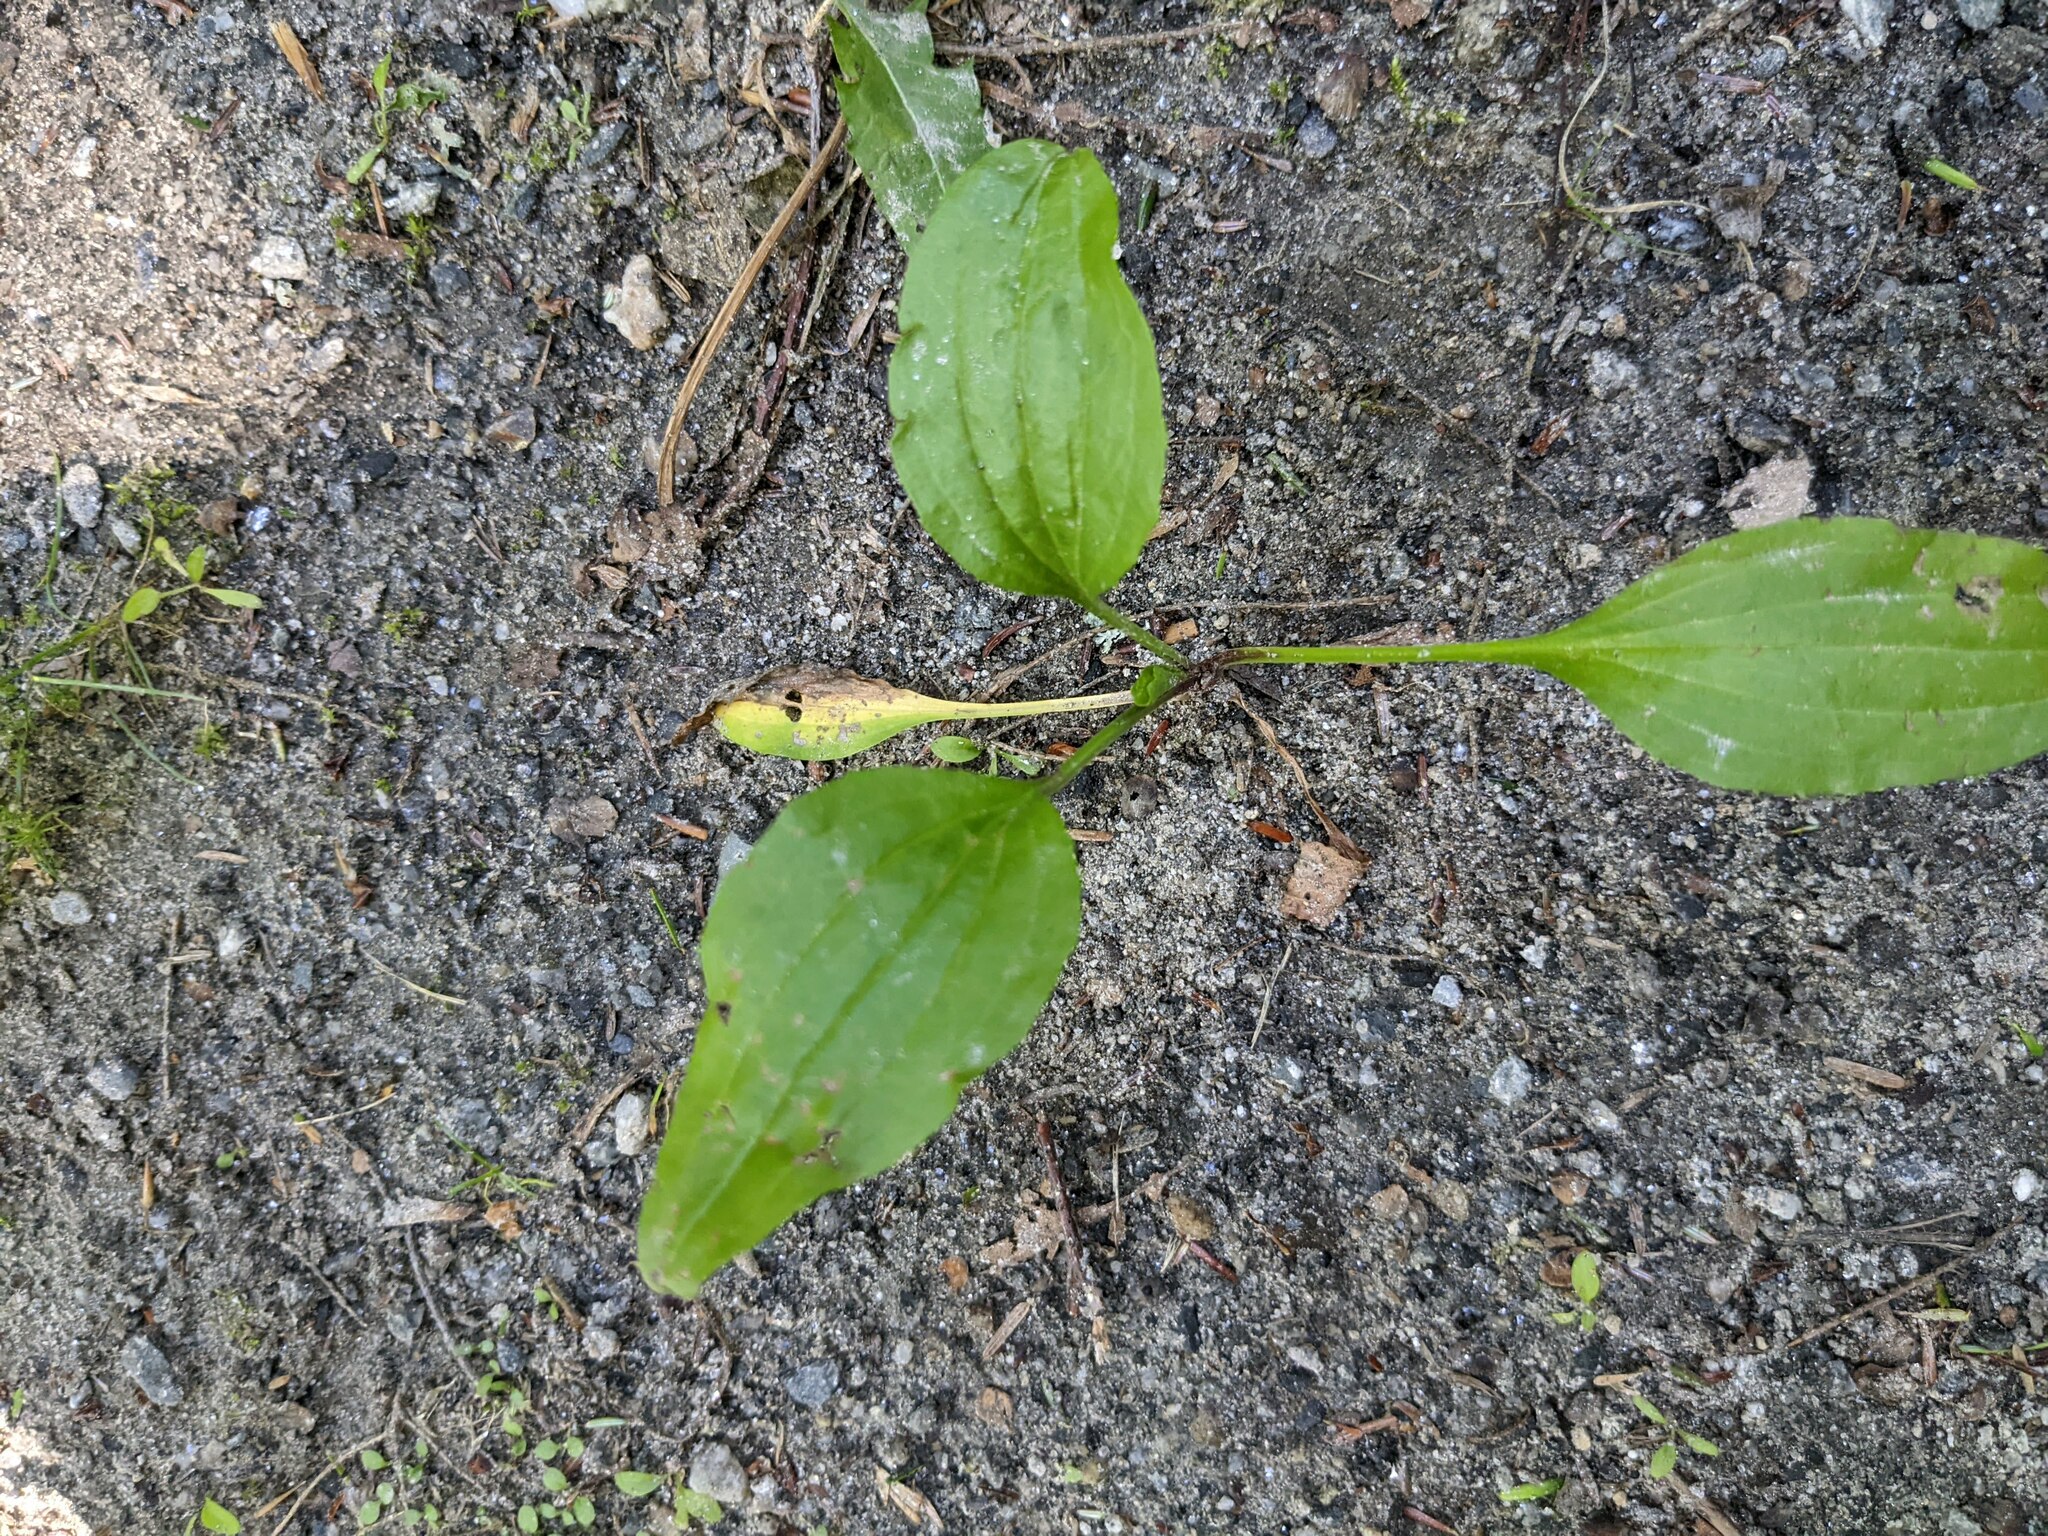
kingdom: Plantae
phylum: Tracheophyta
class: Magnoliopsida
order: Lamiales
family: Plantaginaceae
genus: Plantago
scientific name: Plantago rugelii
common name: American plantain
